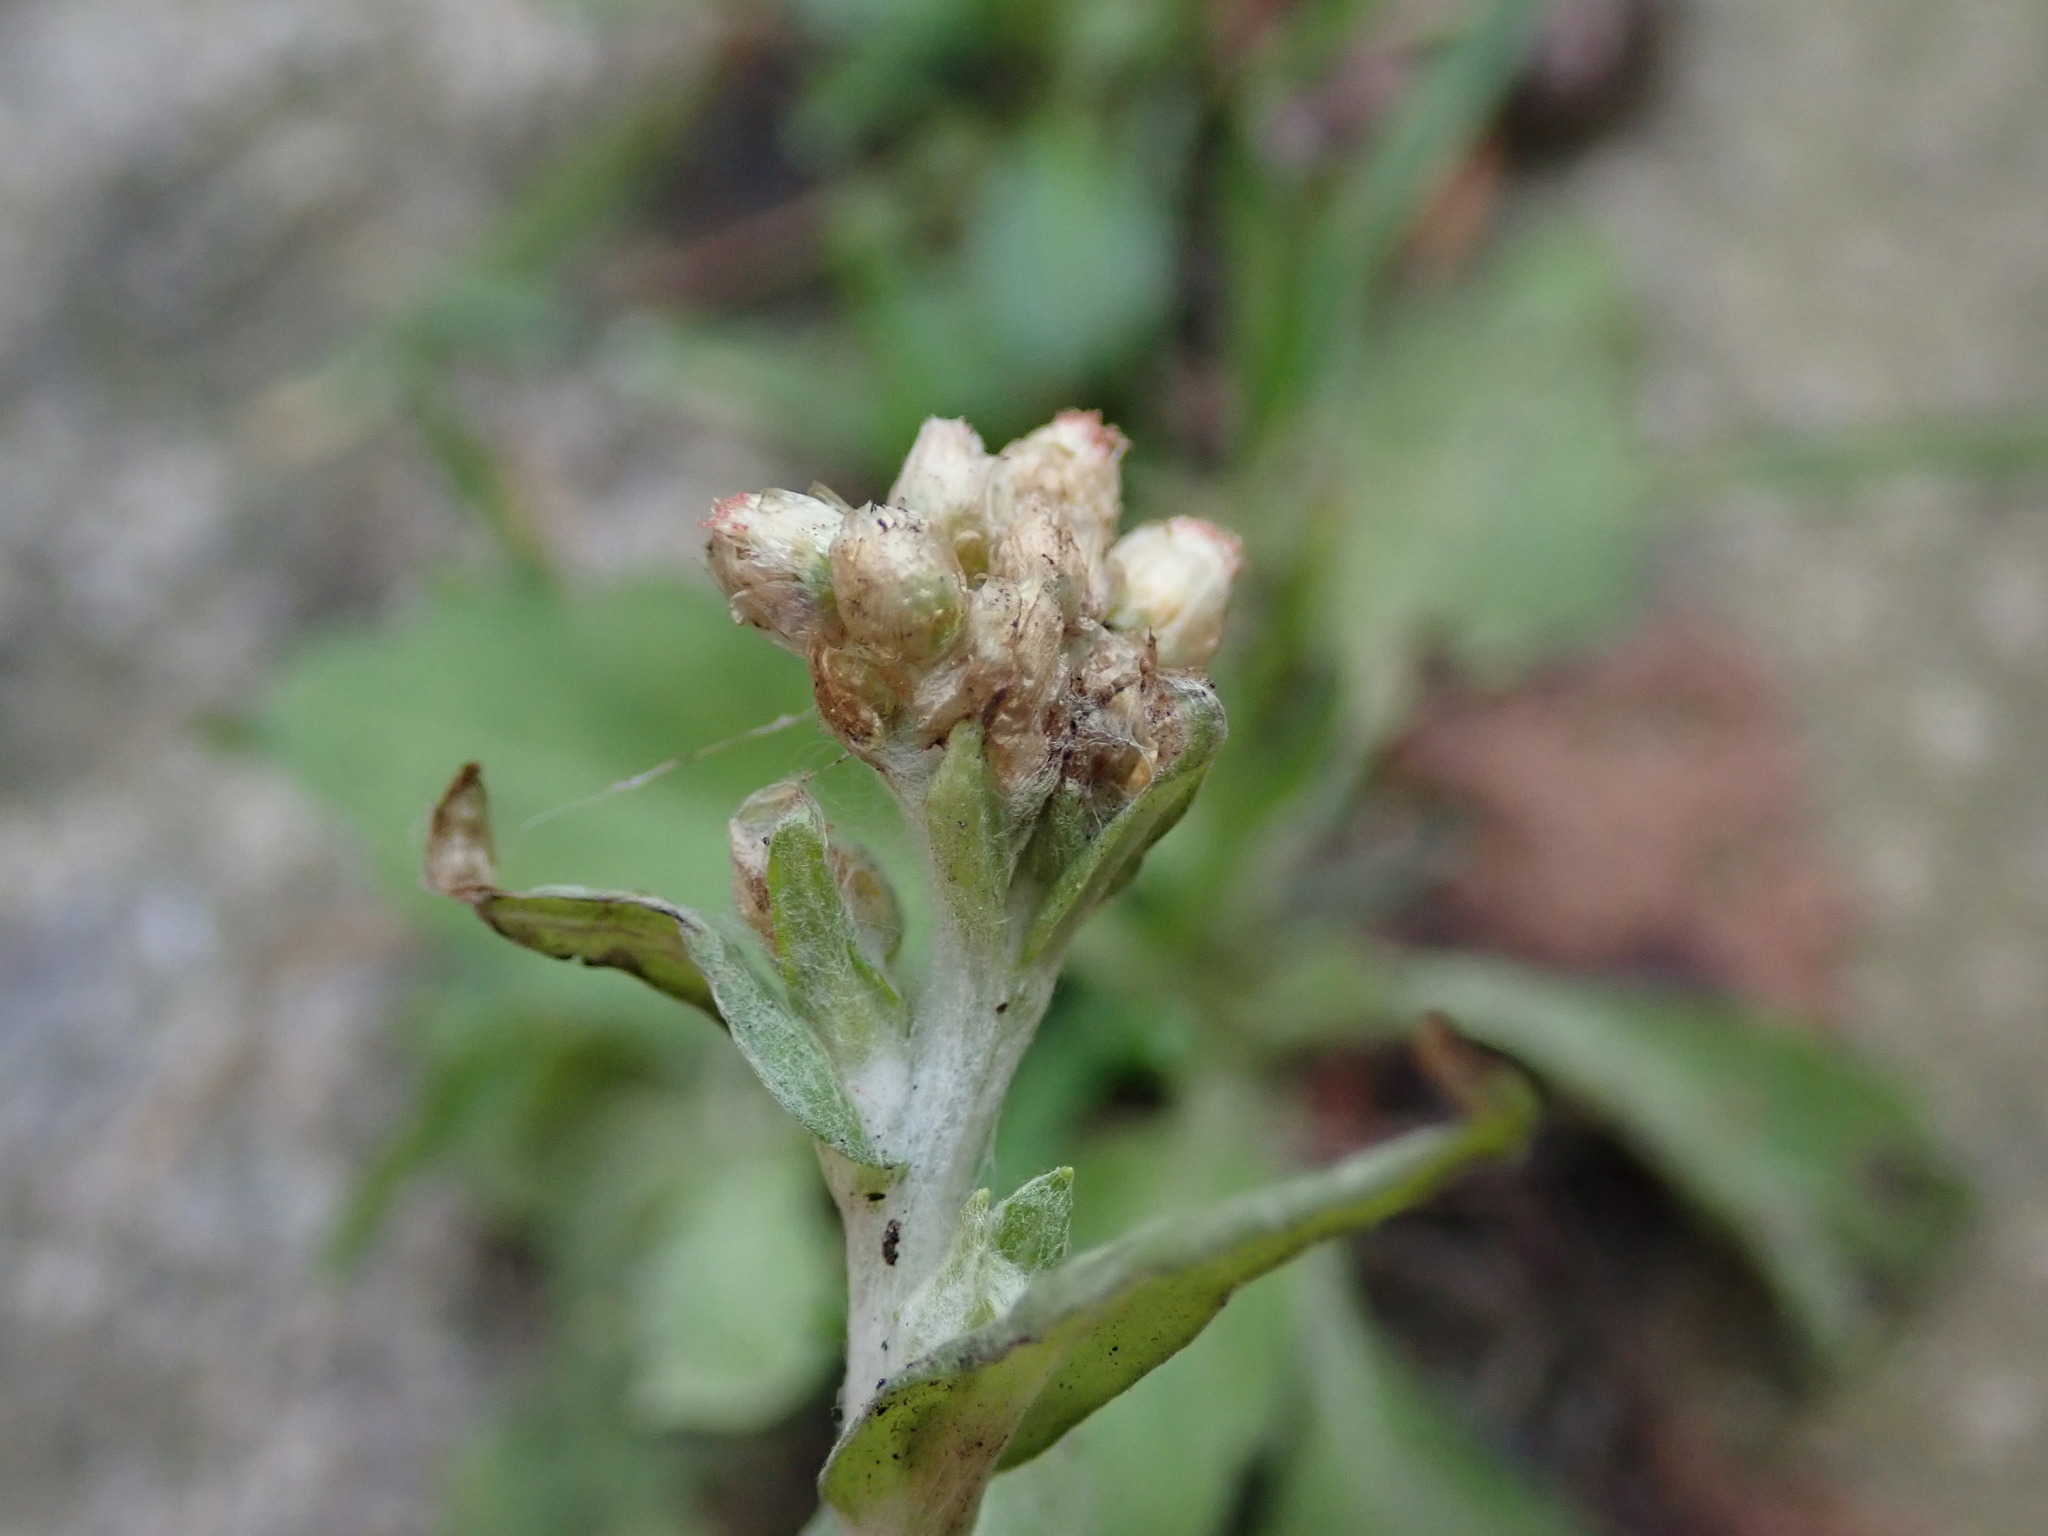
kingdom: Plantae
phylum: Tracheophyta
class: Magnoliopsida
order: Asterales
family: Asteraceae
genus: Helichrysum
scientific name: Helichrysum luteoalbum
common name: Daisy
